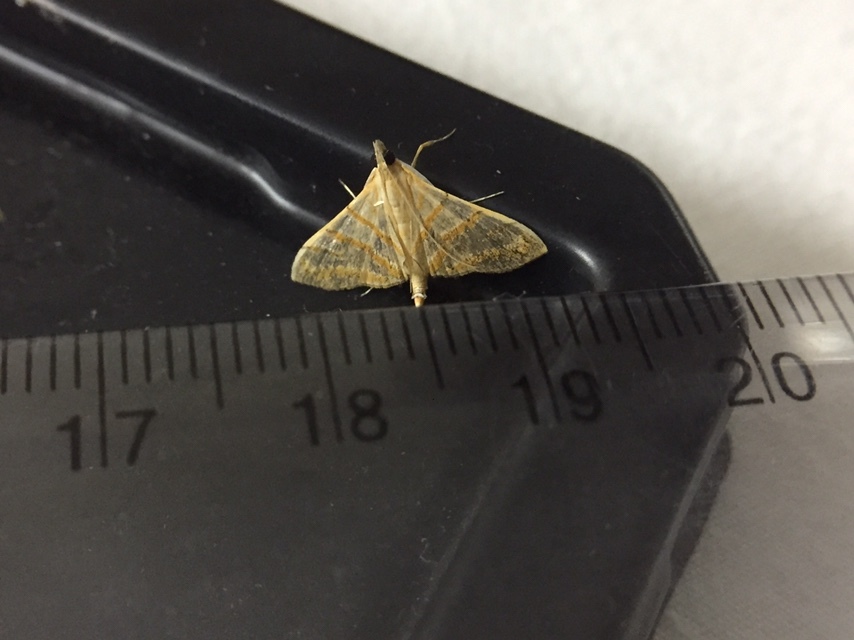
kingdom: Animalia
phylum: Arthropoda
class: Insecta
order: Lepidoptera
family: Crambidae
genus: Pagyda
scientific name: Pagyda salvalis
